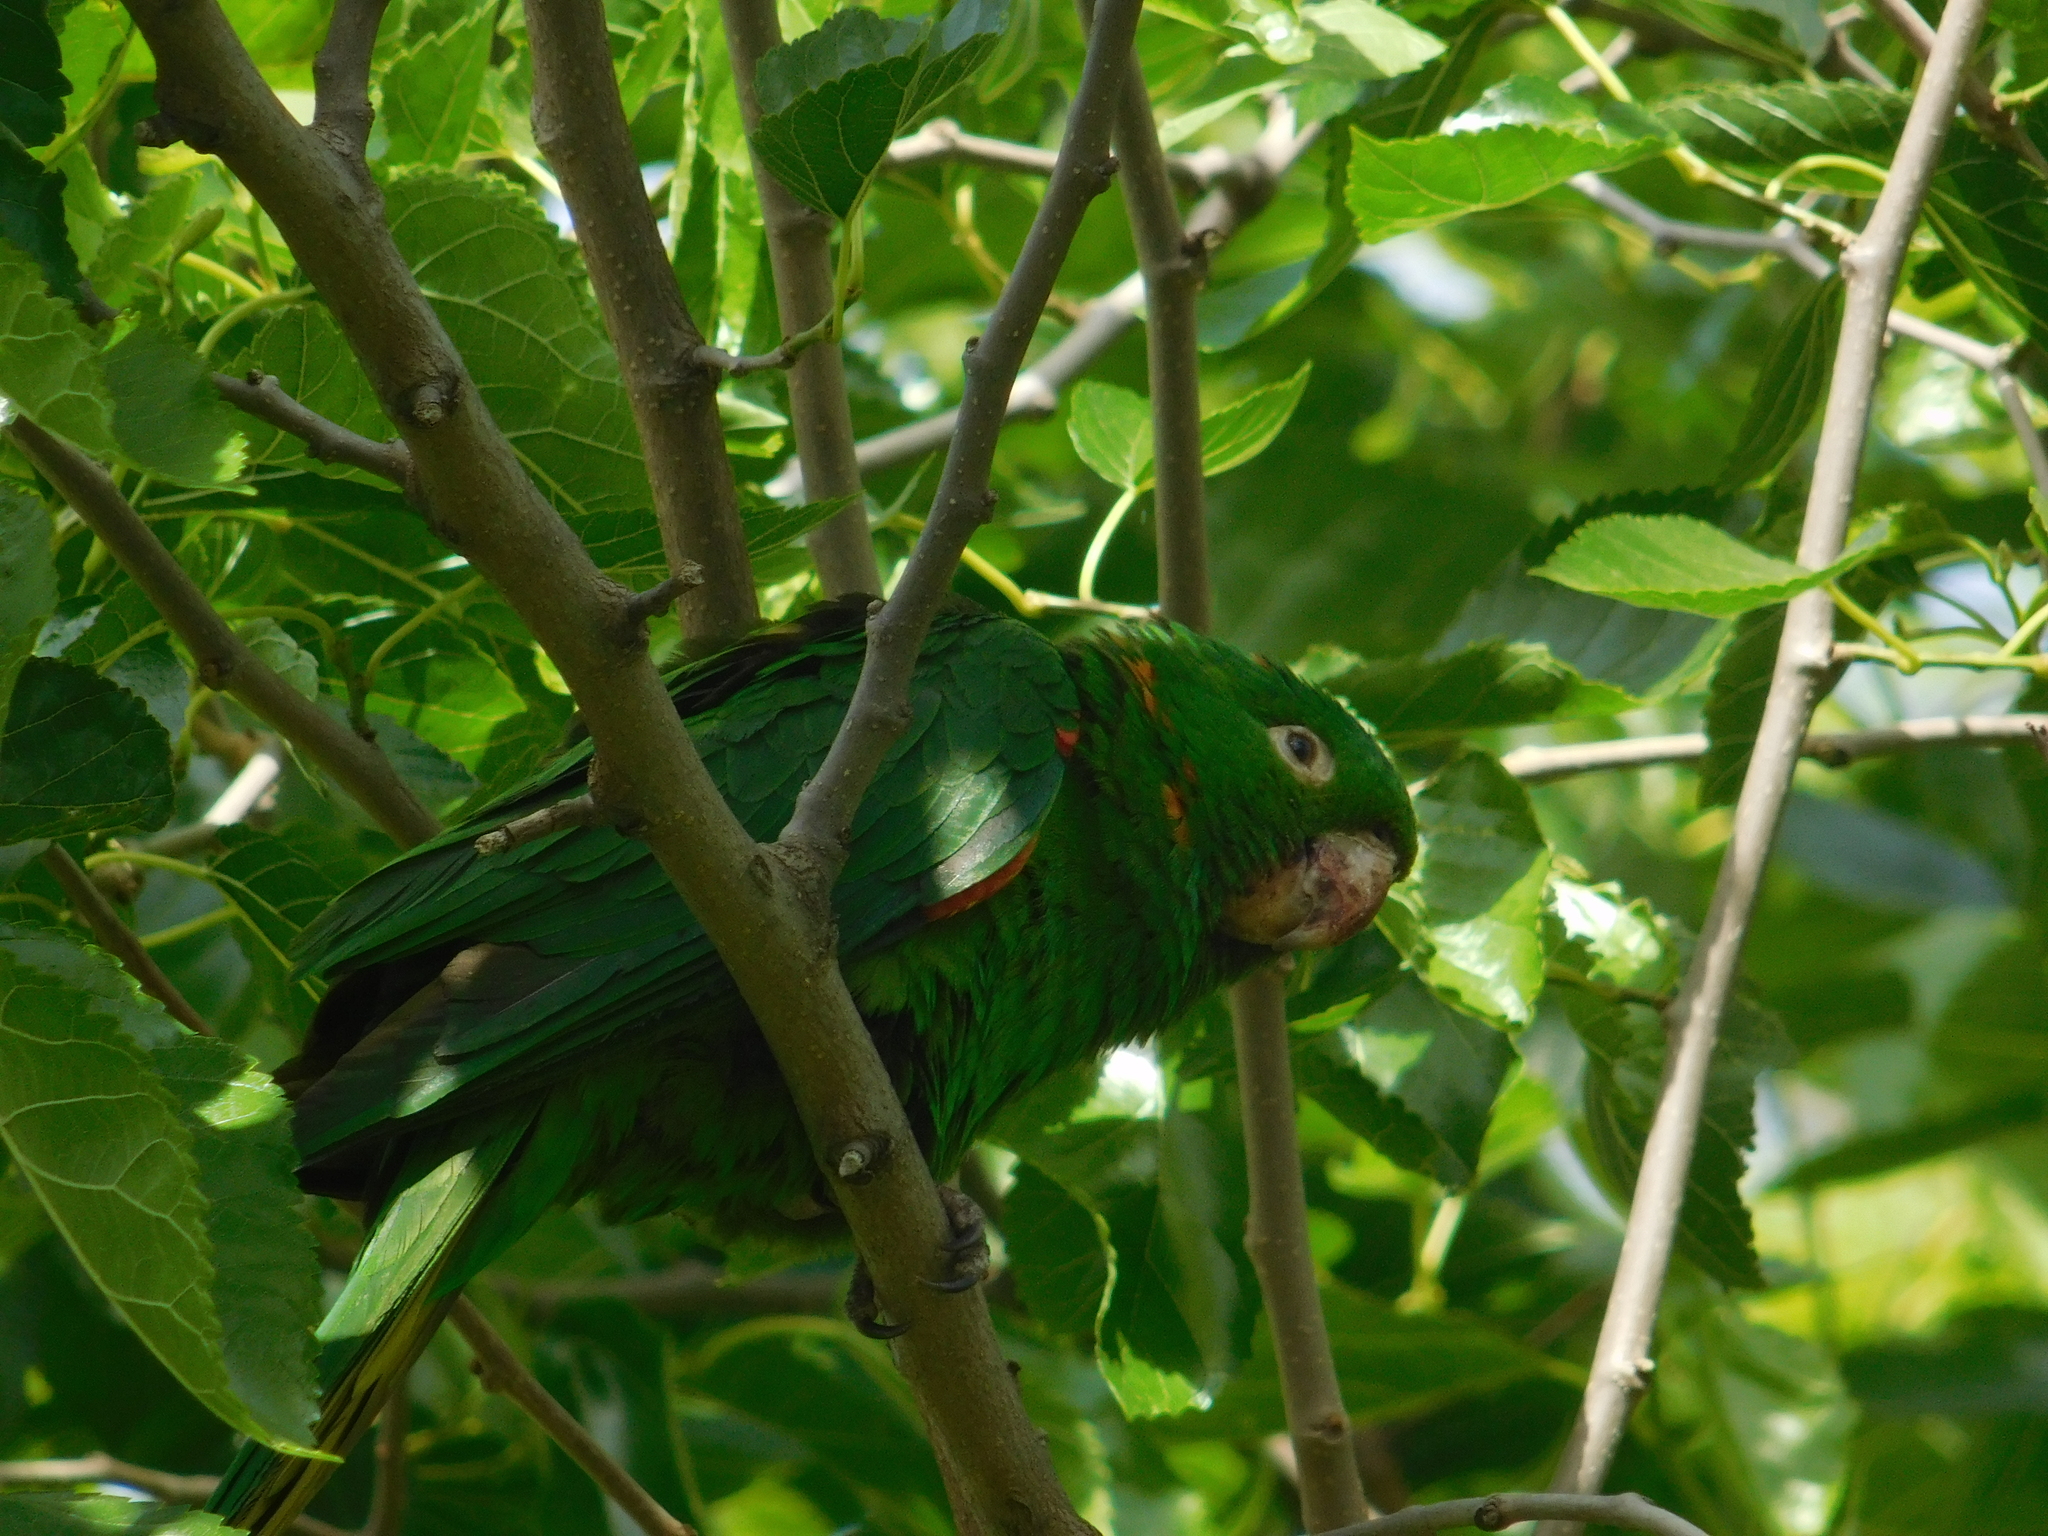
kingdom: Animalia
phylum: Chordata
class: Aves
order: Psittaciformes
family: Psittacidae
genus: Aratinga
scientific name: Aratinga leucophthalma
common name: White-eyed parakeet
